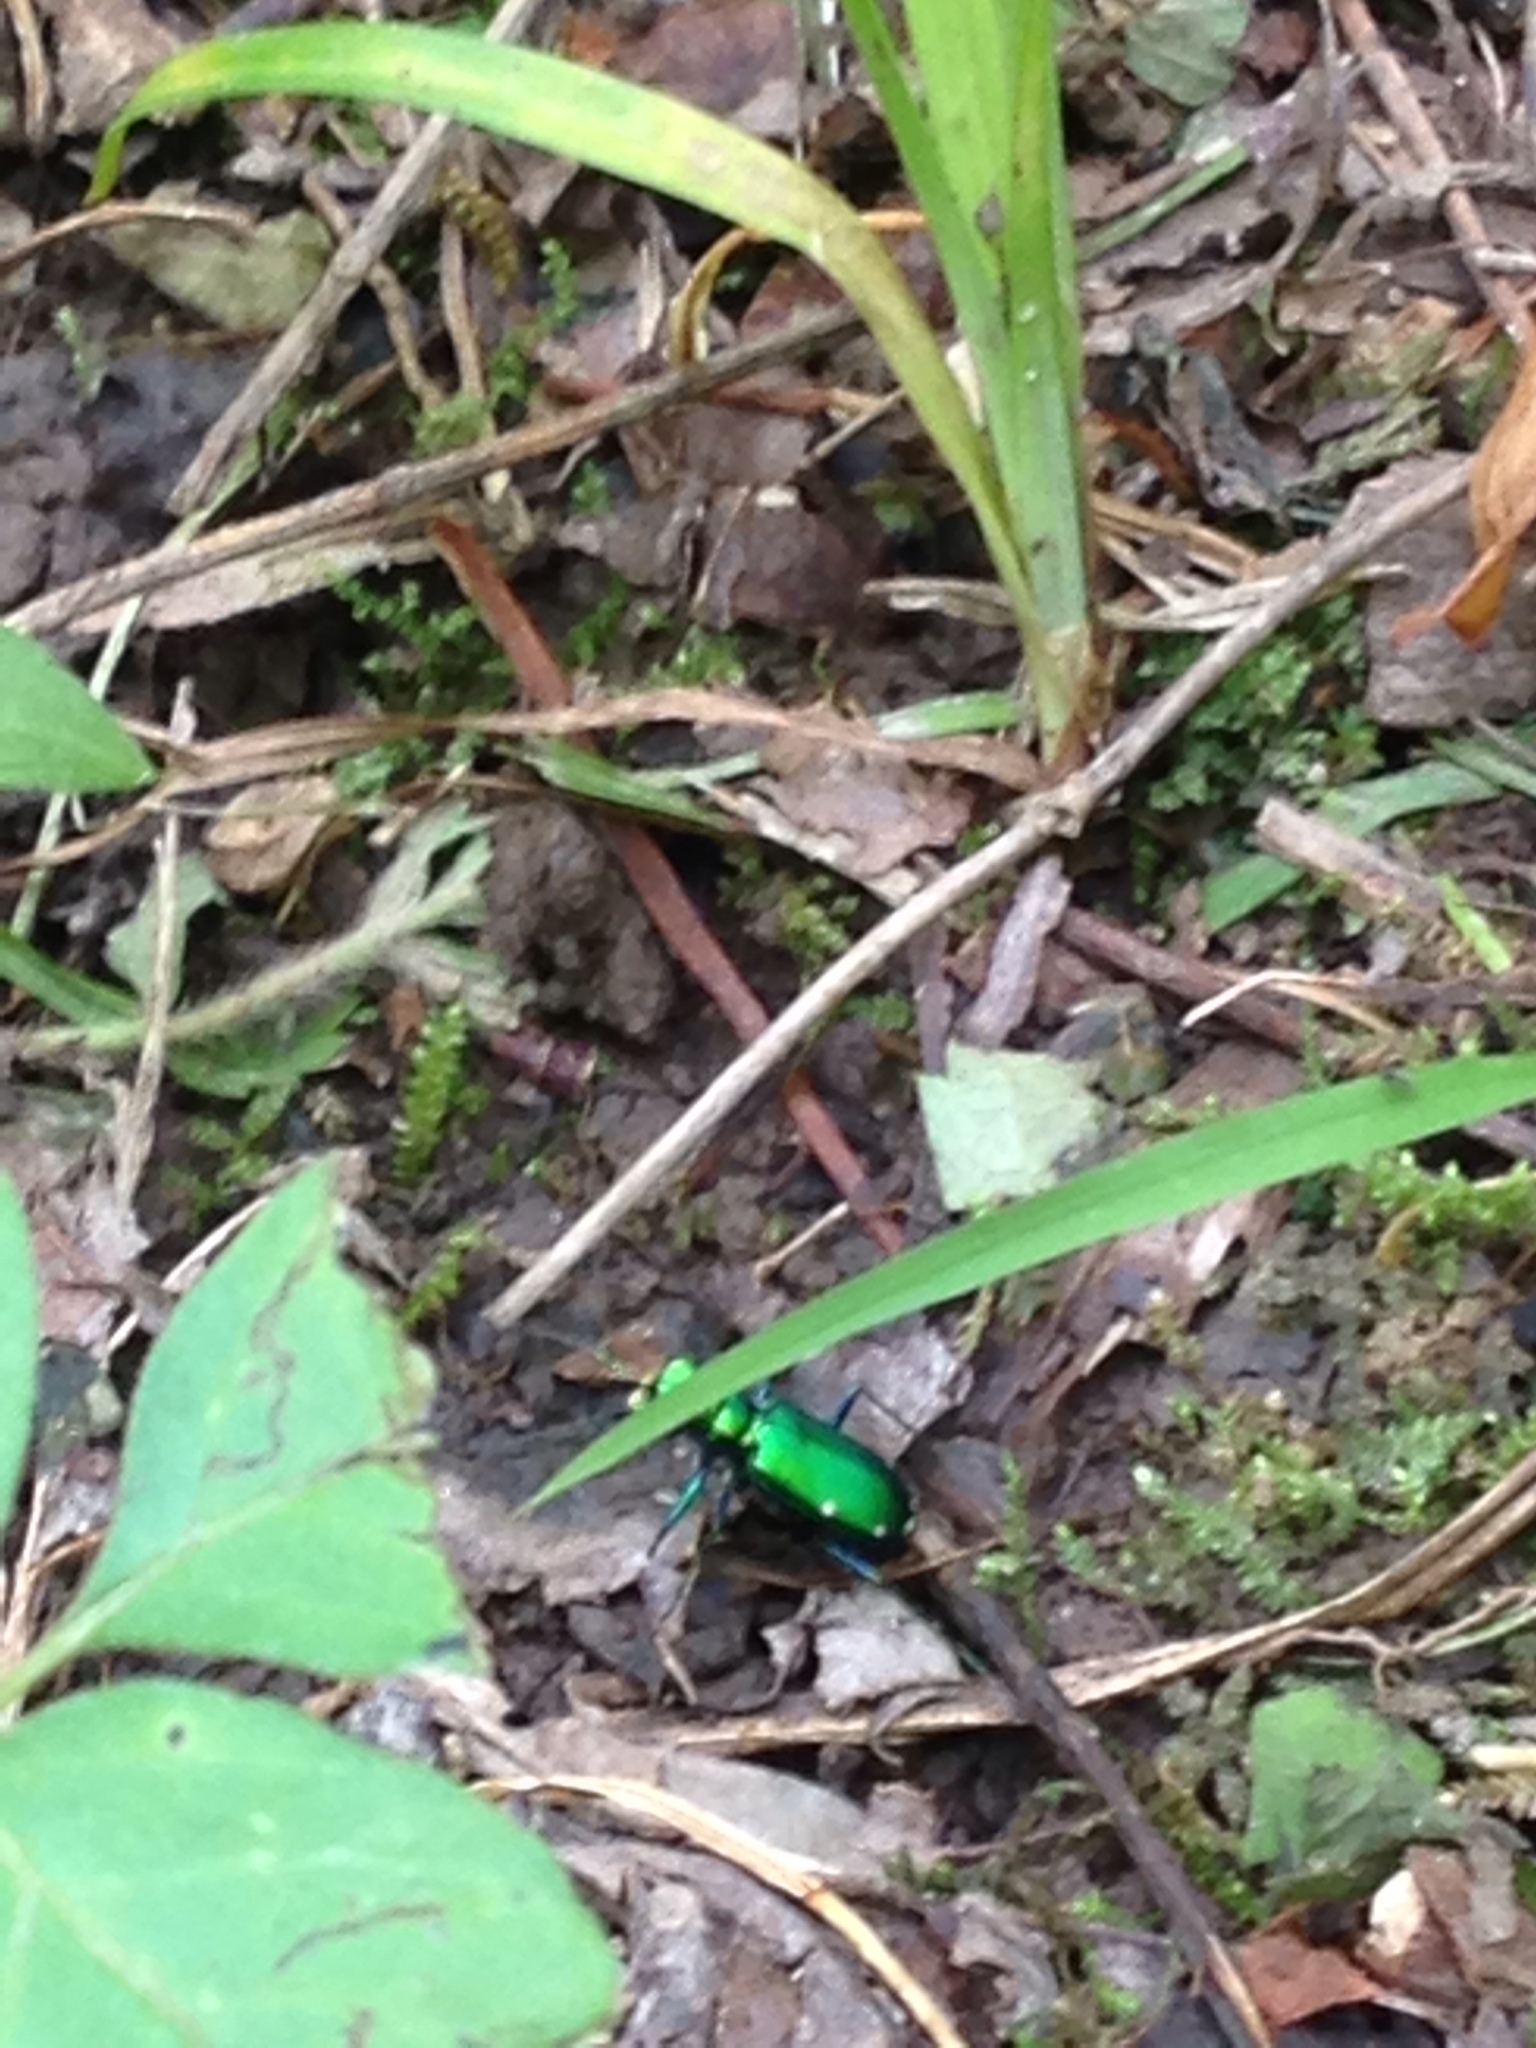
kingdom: Animalia
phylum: Arthropoda
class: Insecta
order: Coleoptera
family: Carabidae
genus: Cicindela
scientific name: Cicindela sexguttata
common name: Six-spotted tiger beetle
